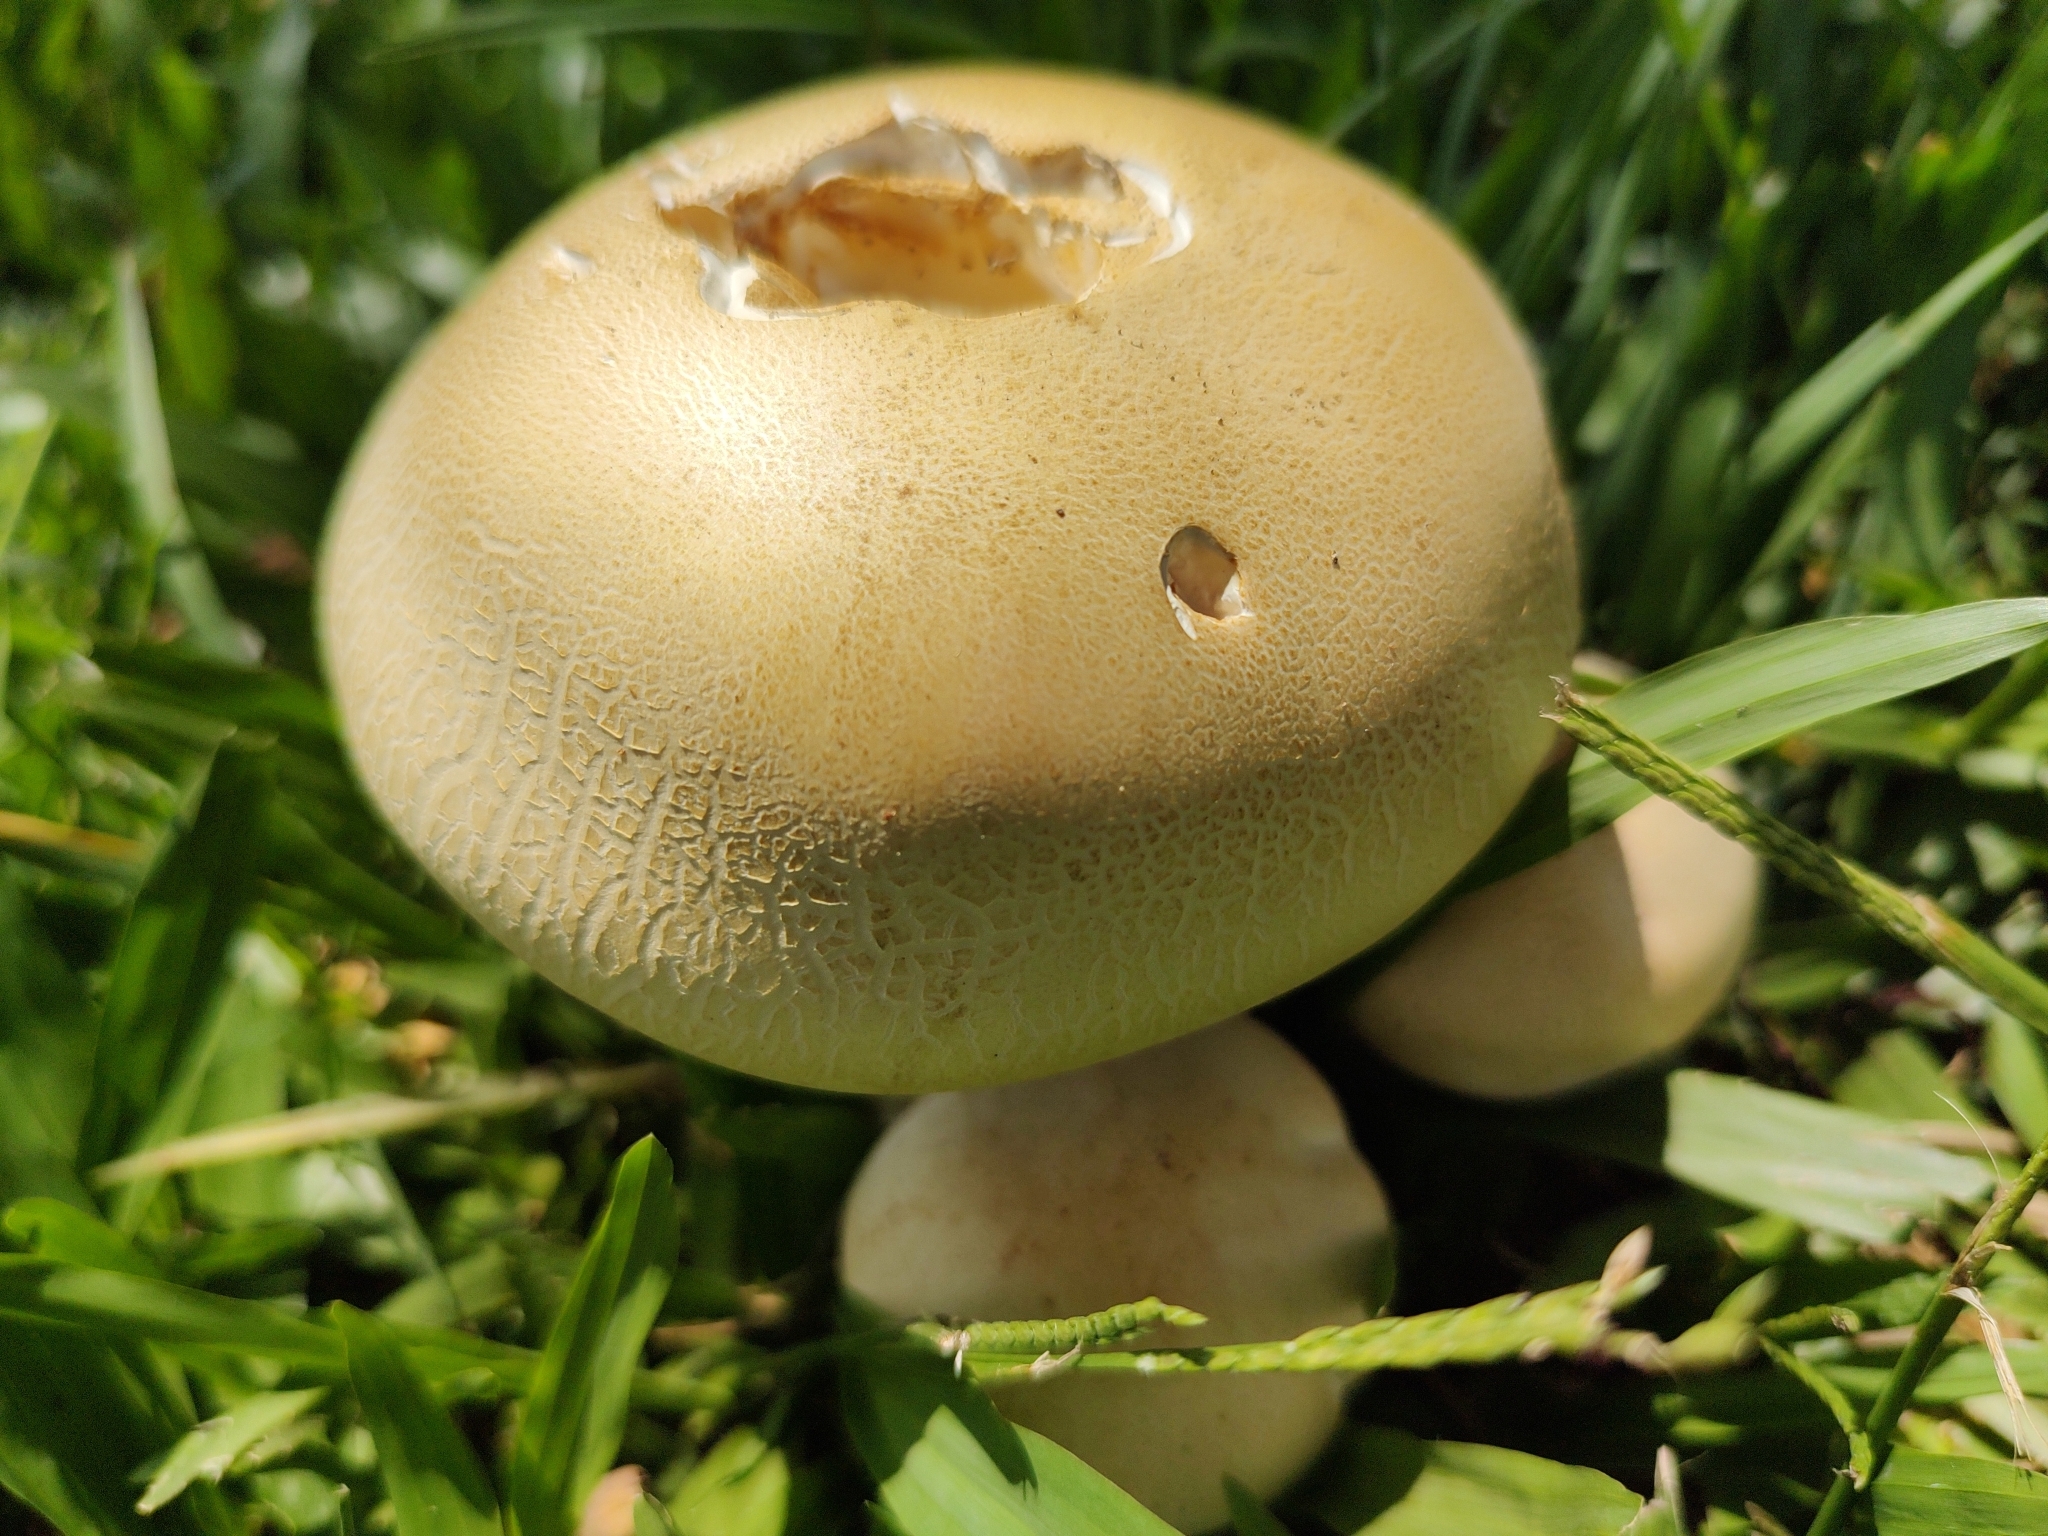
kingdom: Fungi
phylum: Basidiomycota
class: Agaricomycetes
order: Agaricales
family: Callistosporiaceae
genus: Macrocybe
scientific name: Macrocybe titans
